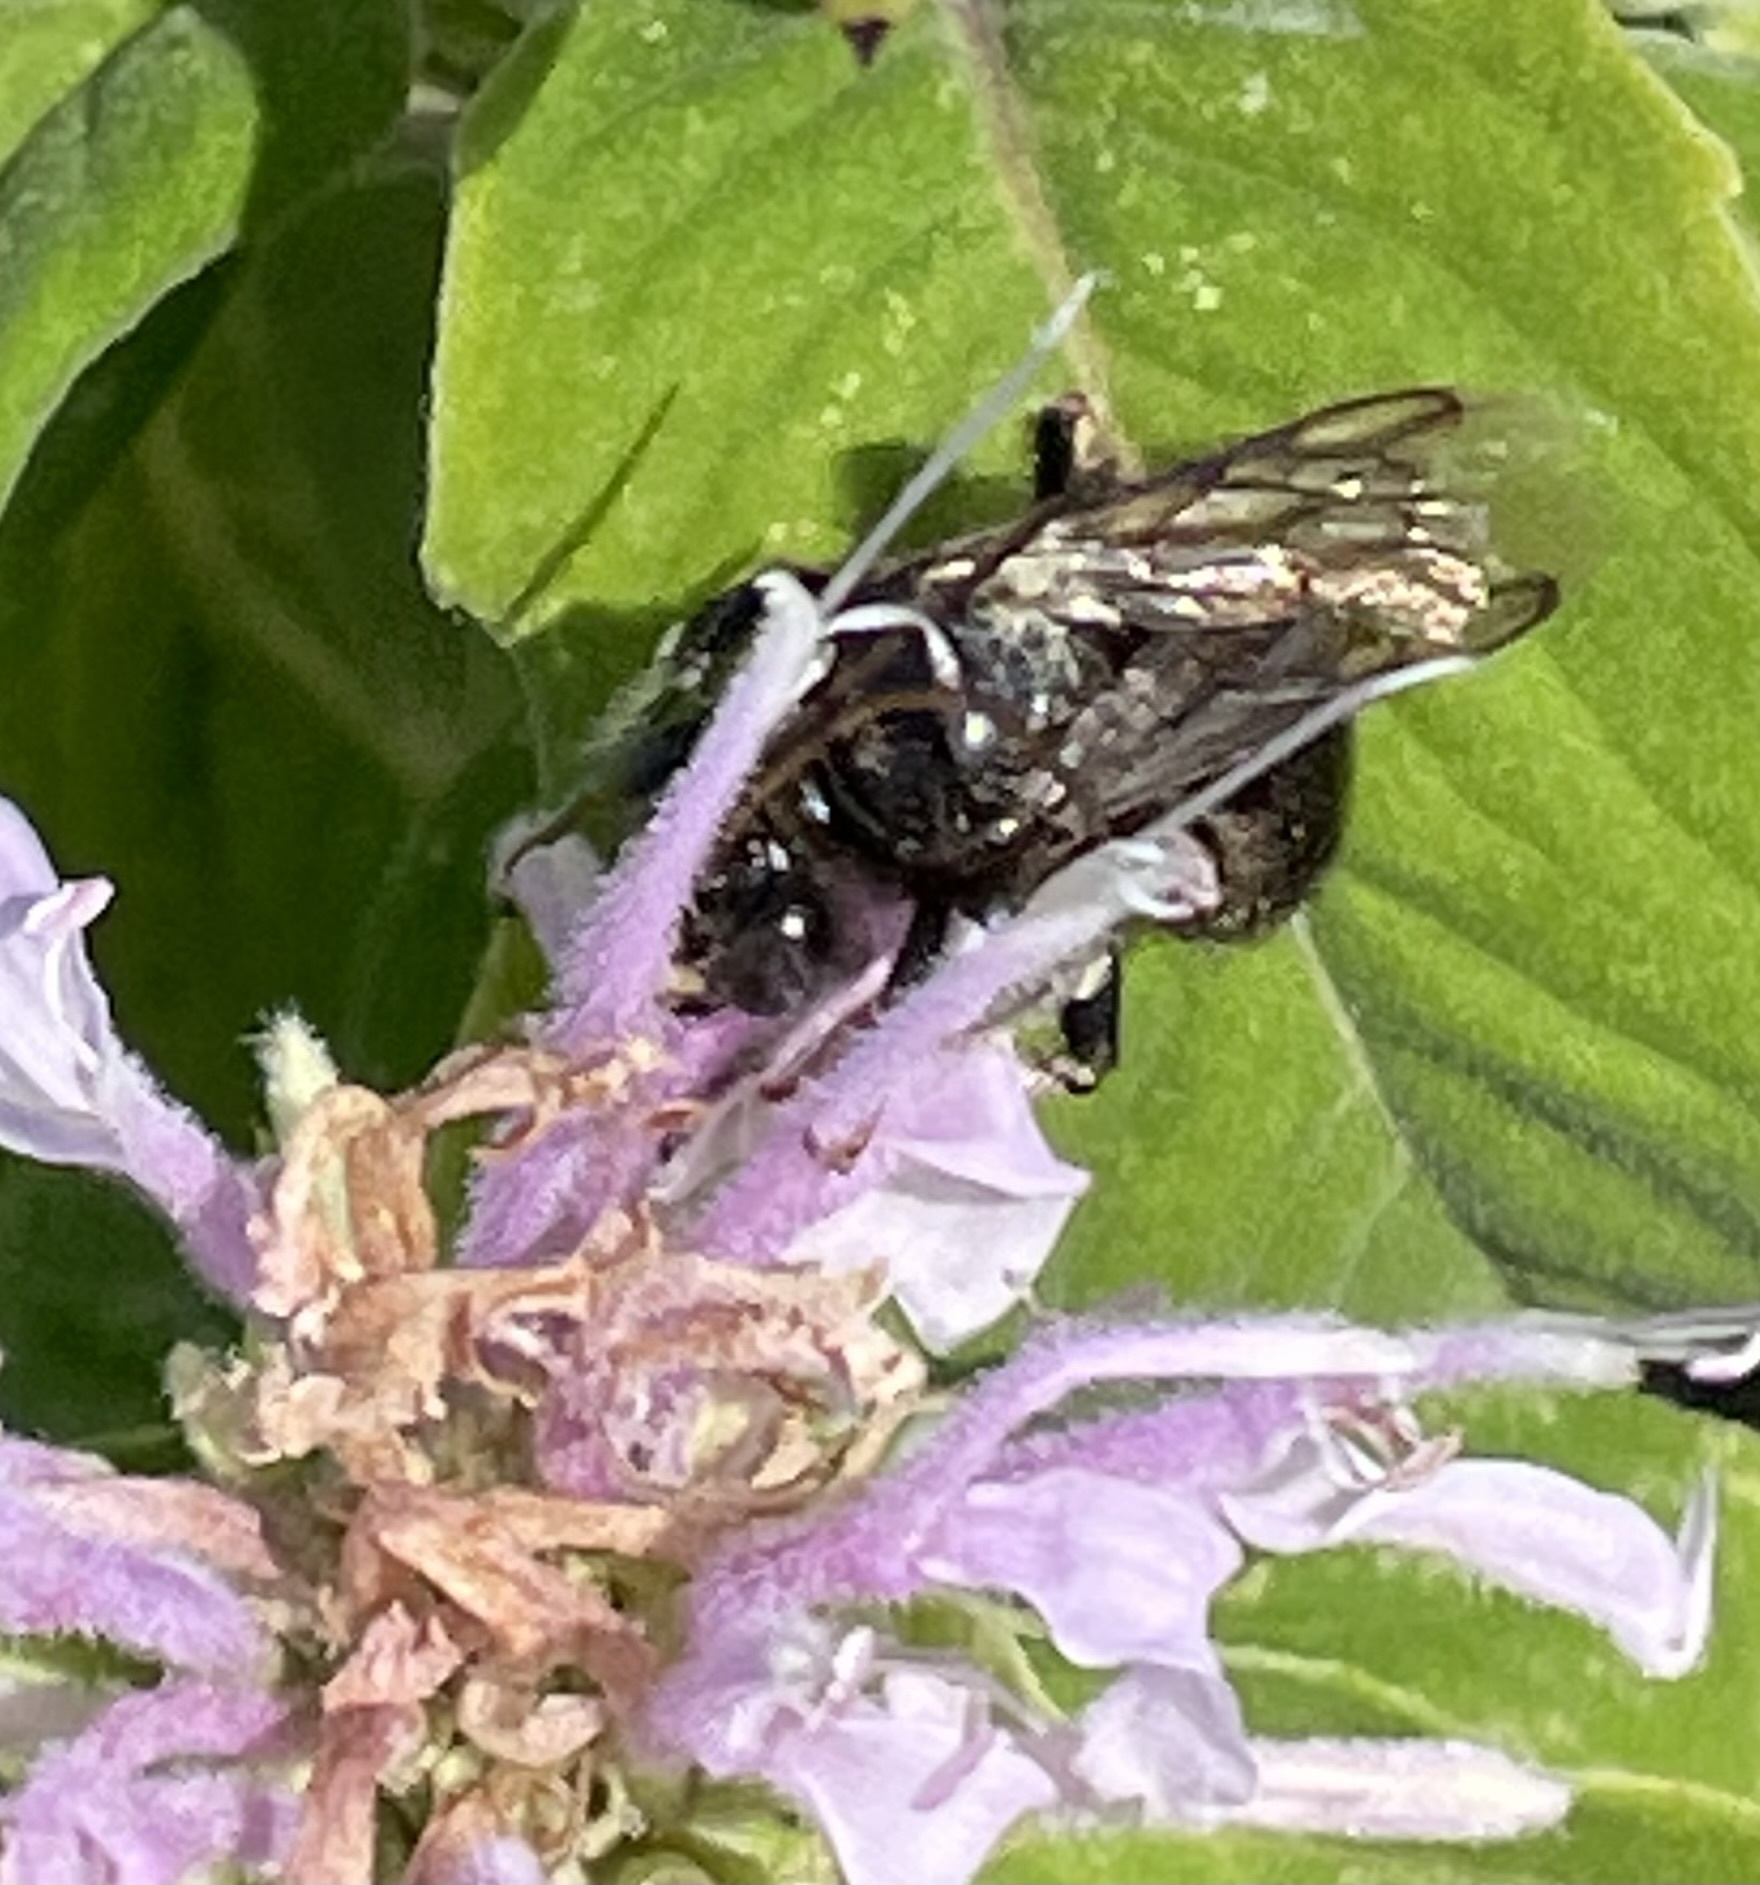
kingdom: Animalia
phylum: Arthropoda
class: Insecta
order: Hymenoptera
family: Apidae
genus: Melissodes
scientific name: Melissodes bimaculatus
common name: Two-spotted long-horned bee
